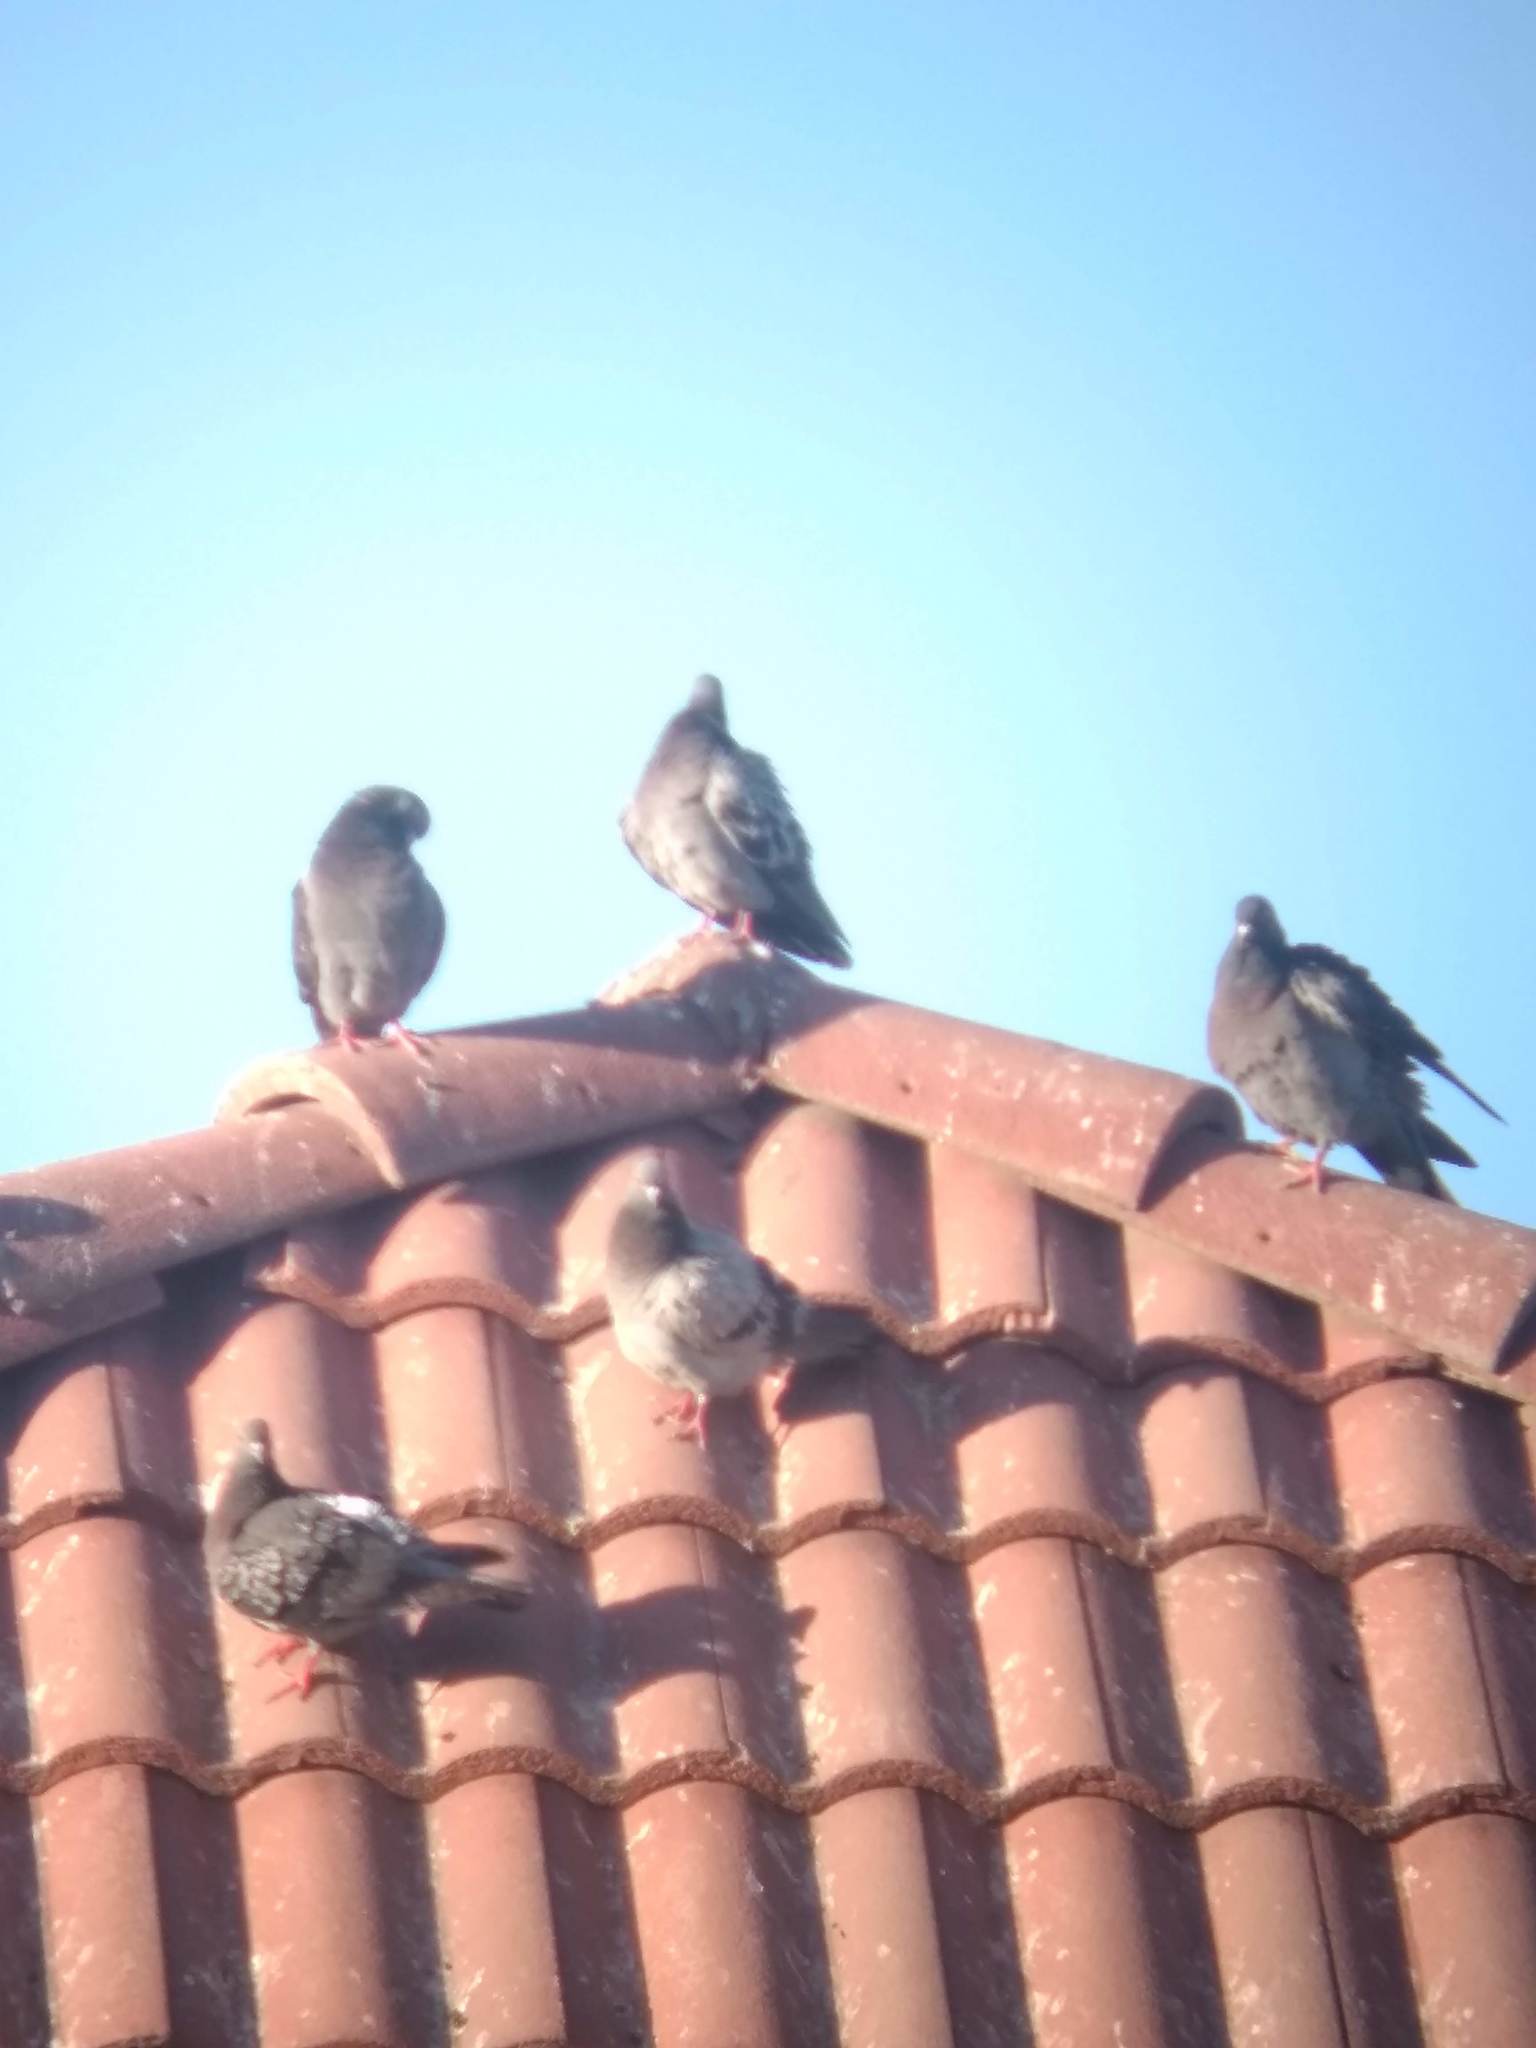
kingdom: Animalia
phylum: Chordata
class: Aves
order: Columbiformes
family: Columbidae
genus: Columba
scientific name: Columba livia
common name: Rock pigeon
